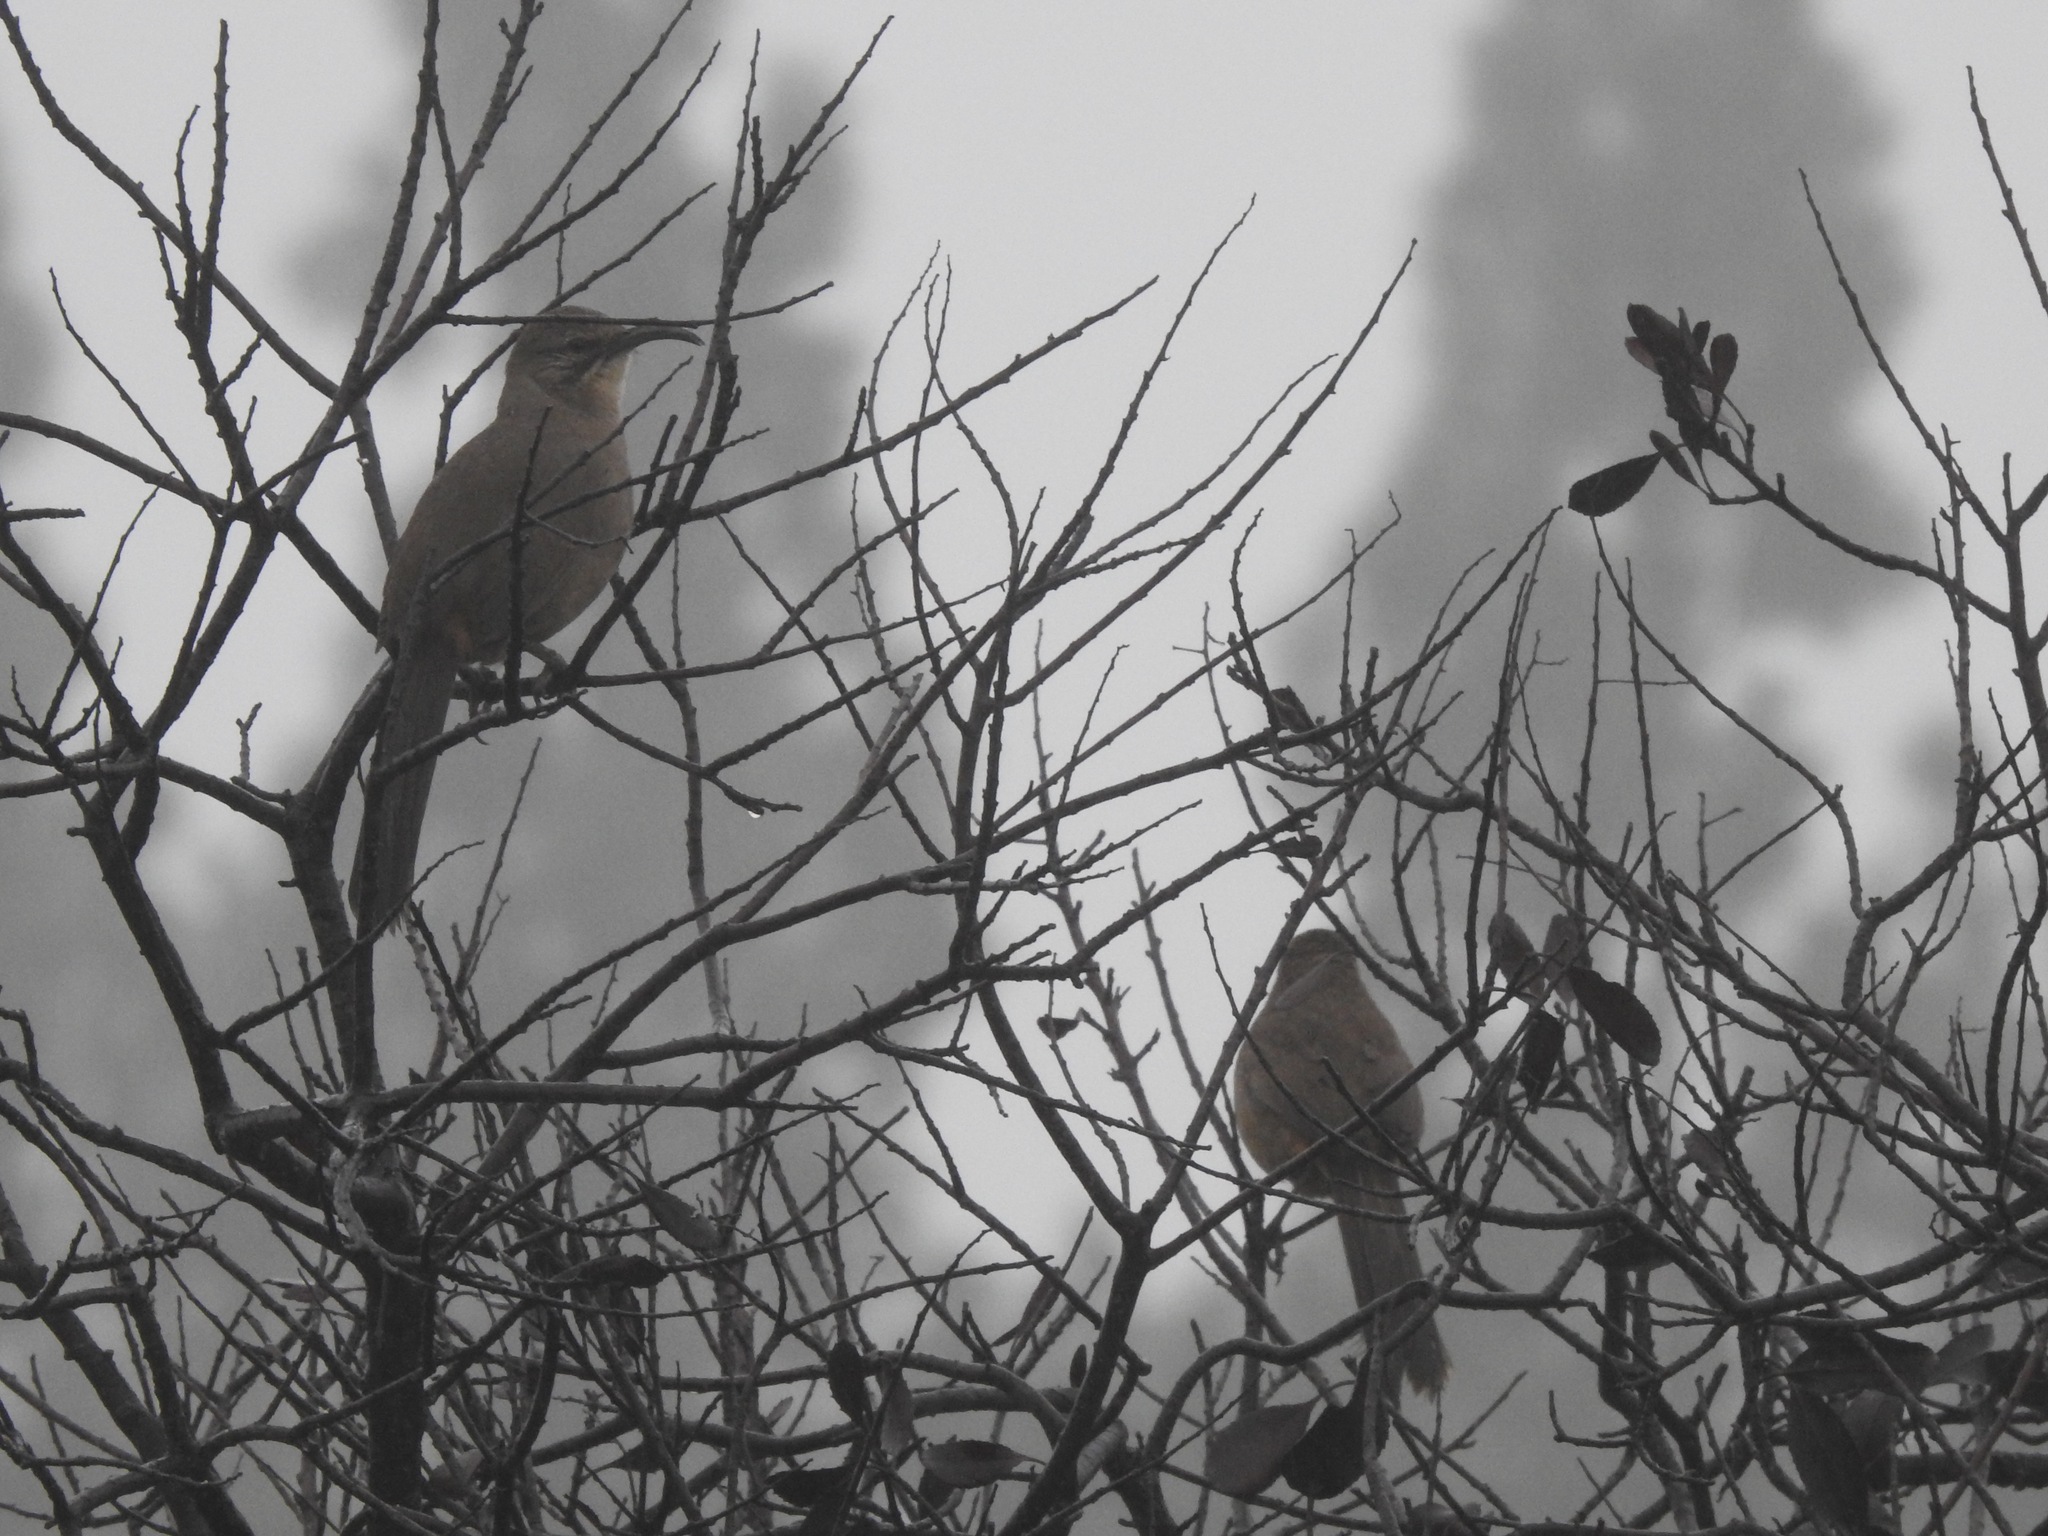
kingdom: Animalia
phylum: Chordata
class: Aves
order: Passeriformes
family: Mimidae
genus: Toxostoma
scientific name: Toxostoma redivivum
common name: California thrasher
